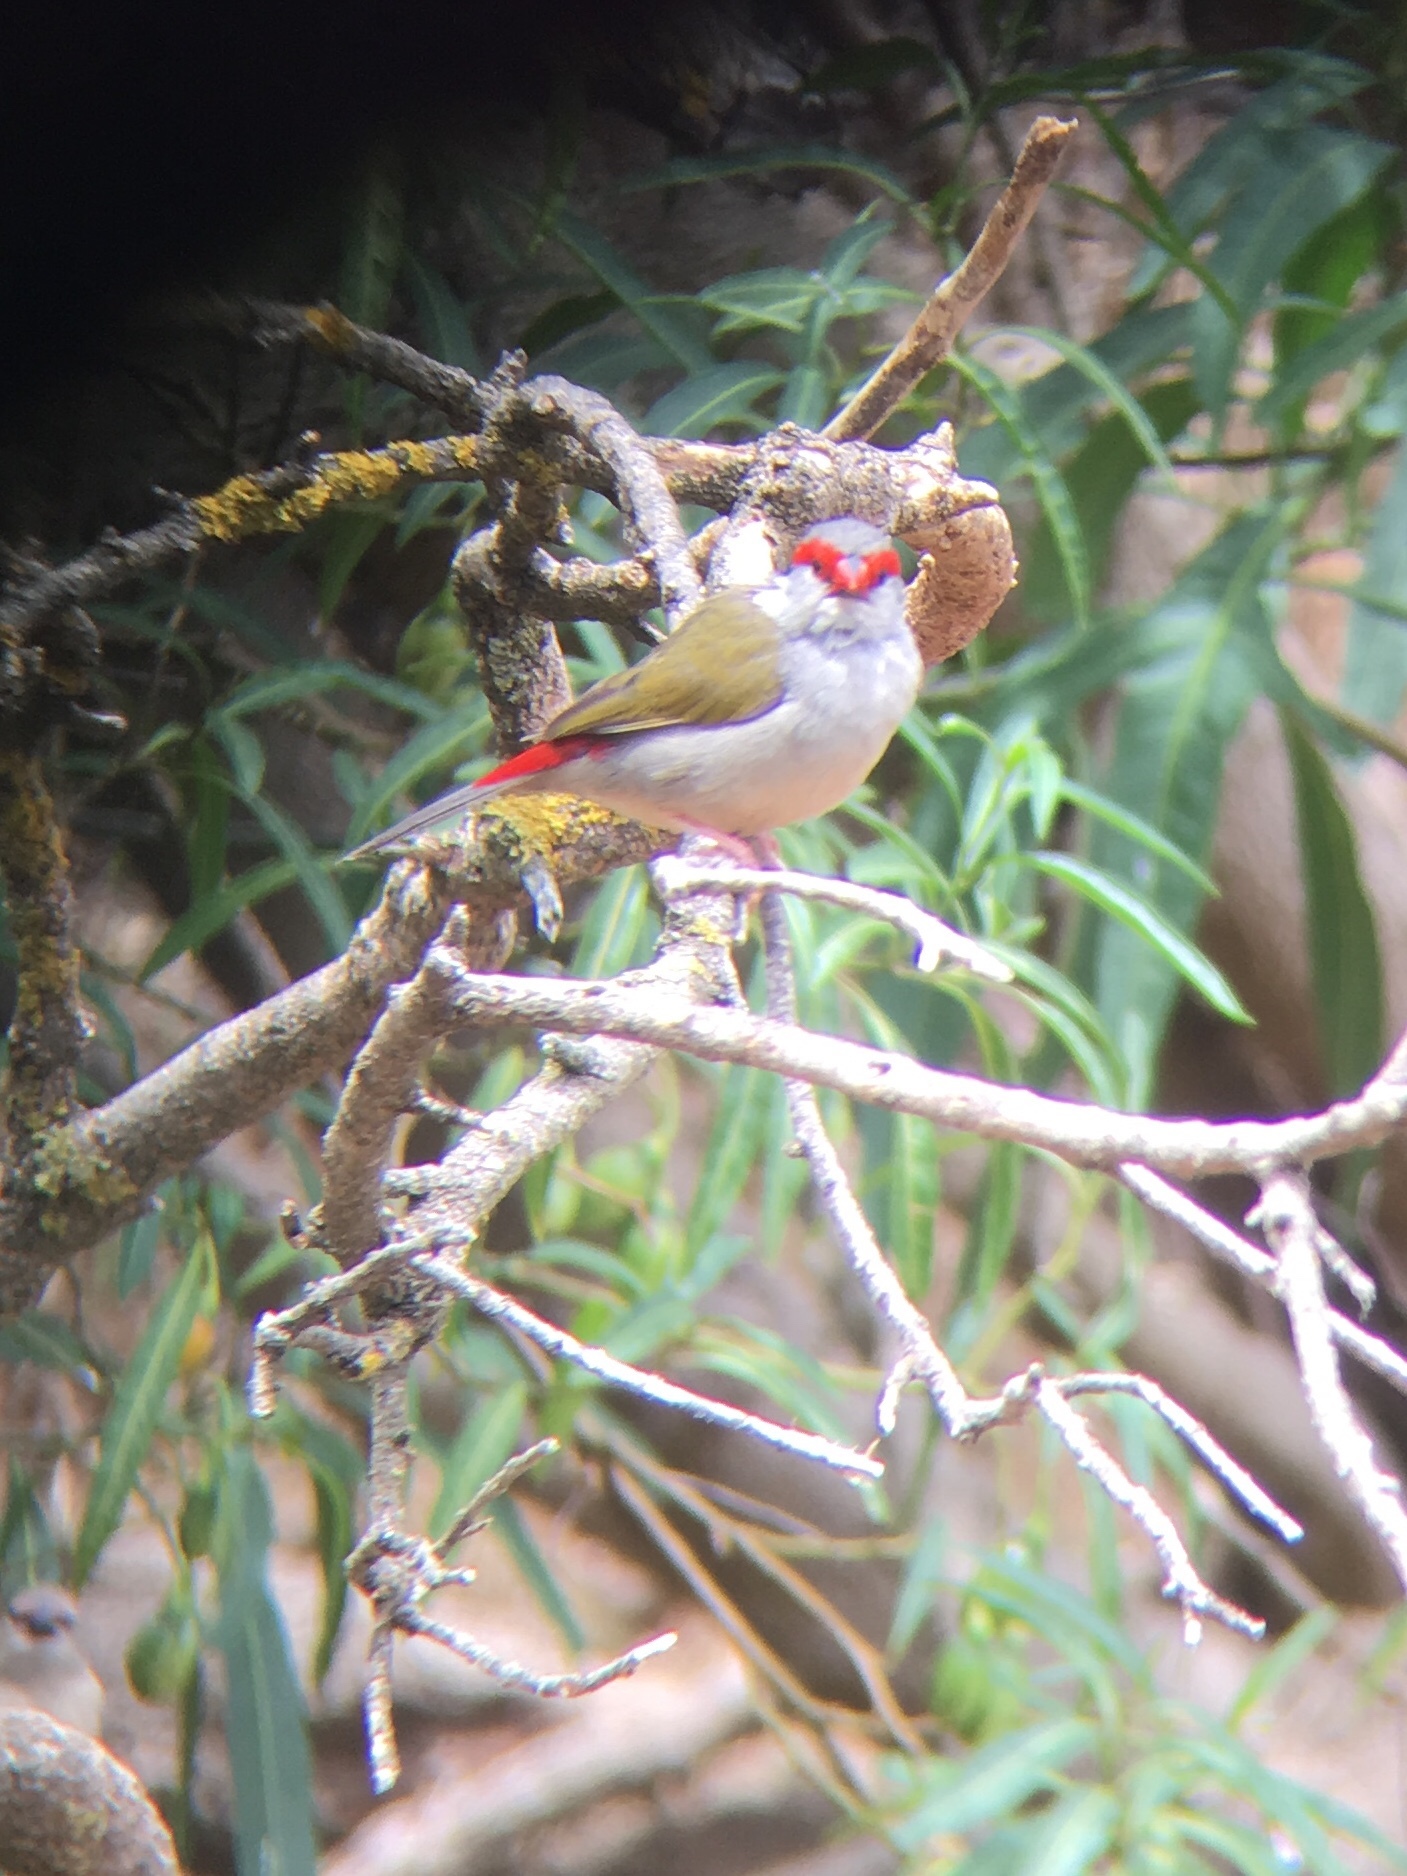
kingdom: Animalia
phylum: Chordata
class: Aves
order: Passeriformes
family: Estrildidae
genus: Neochmia
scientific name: Neochmia temporalis
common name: Red-browed finch
